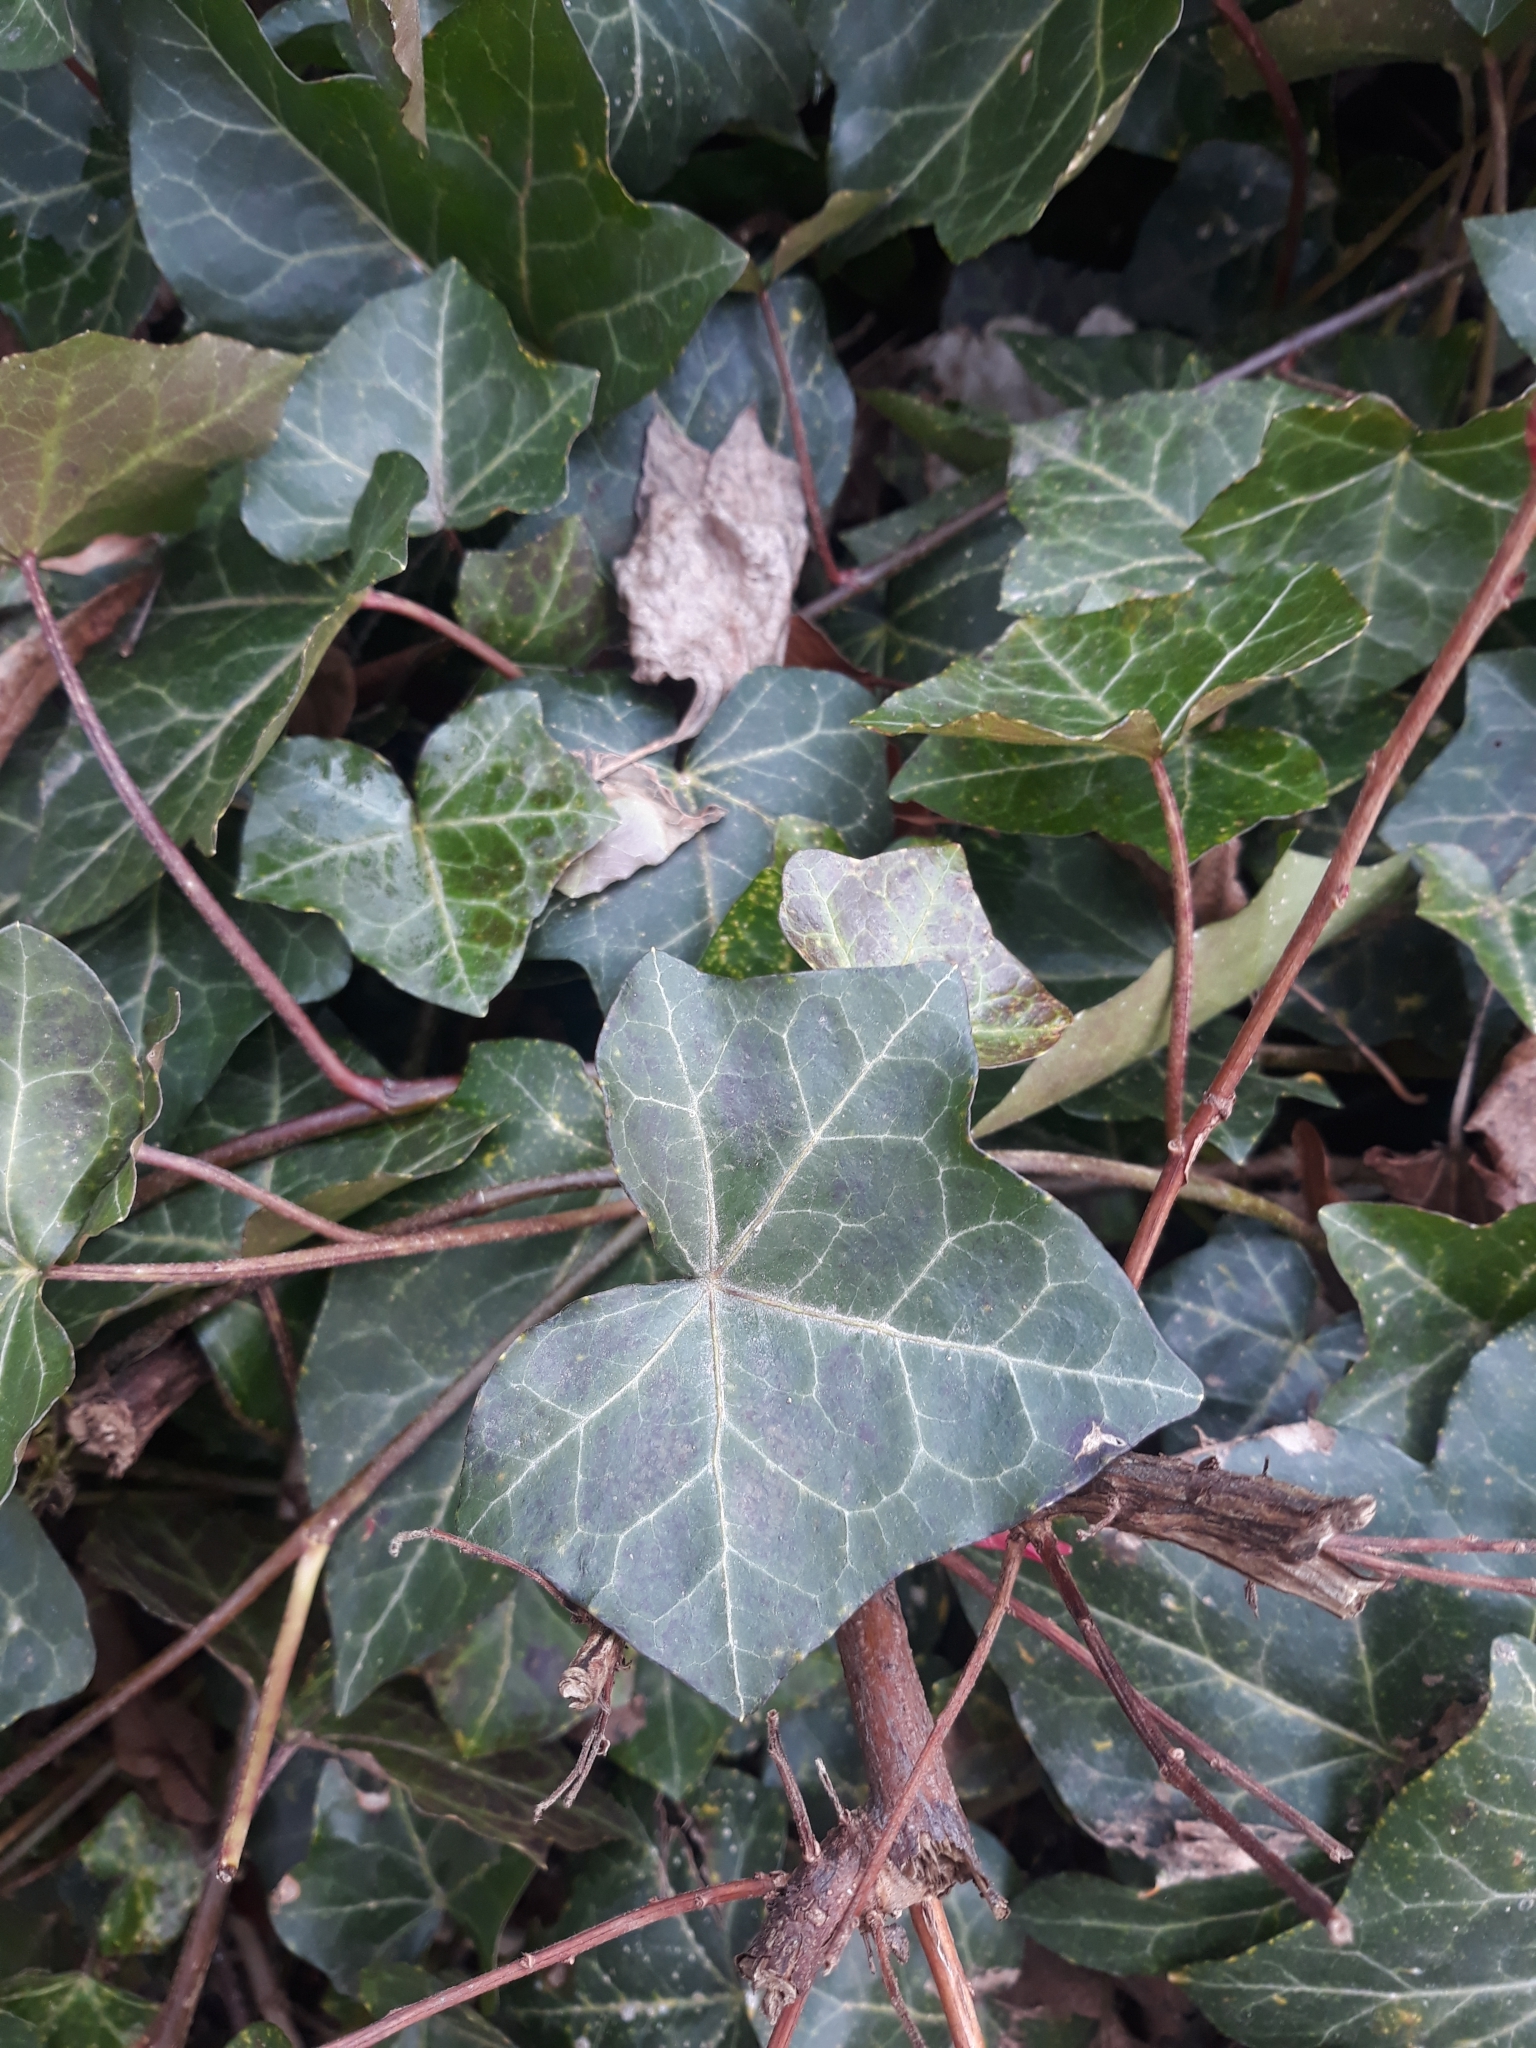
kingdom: Plantae
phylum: Tracheophyta
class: Magnoliopsida
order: Apiales
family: Araliaceae
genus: Hedera
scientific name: Hedera helix
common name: Ivy
